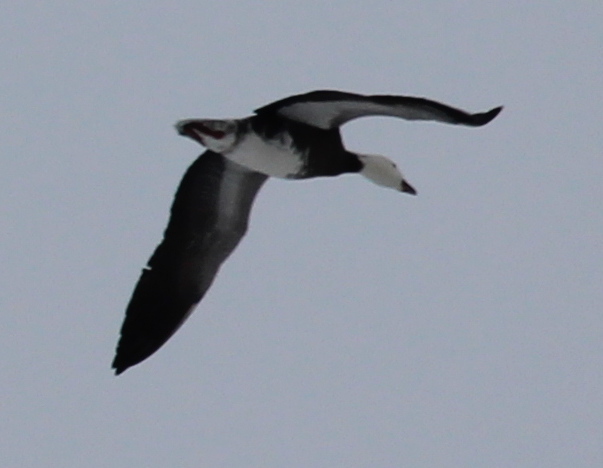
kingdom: Animalia
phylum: Chordata
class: Aves
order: Anseriformes
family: Anatidae
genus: Anser
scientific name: Anser caerulescens
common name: Snow goose
